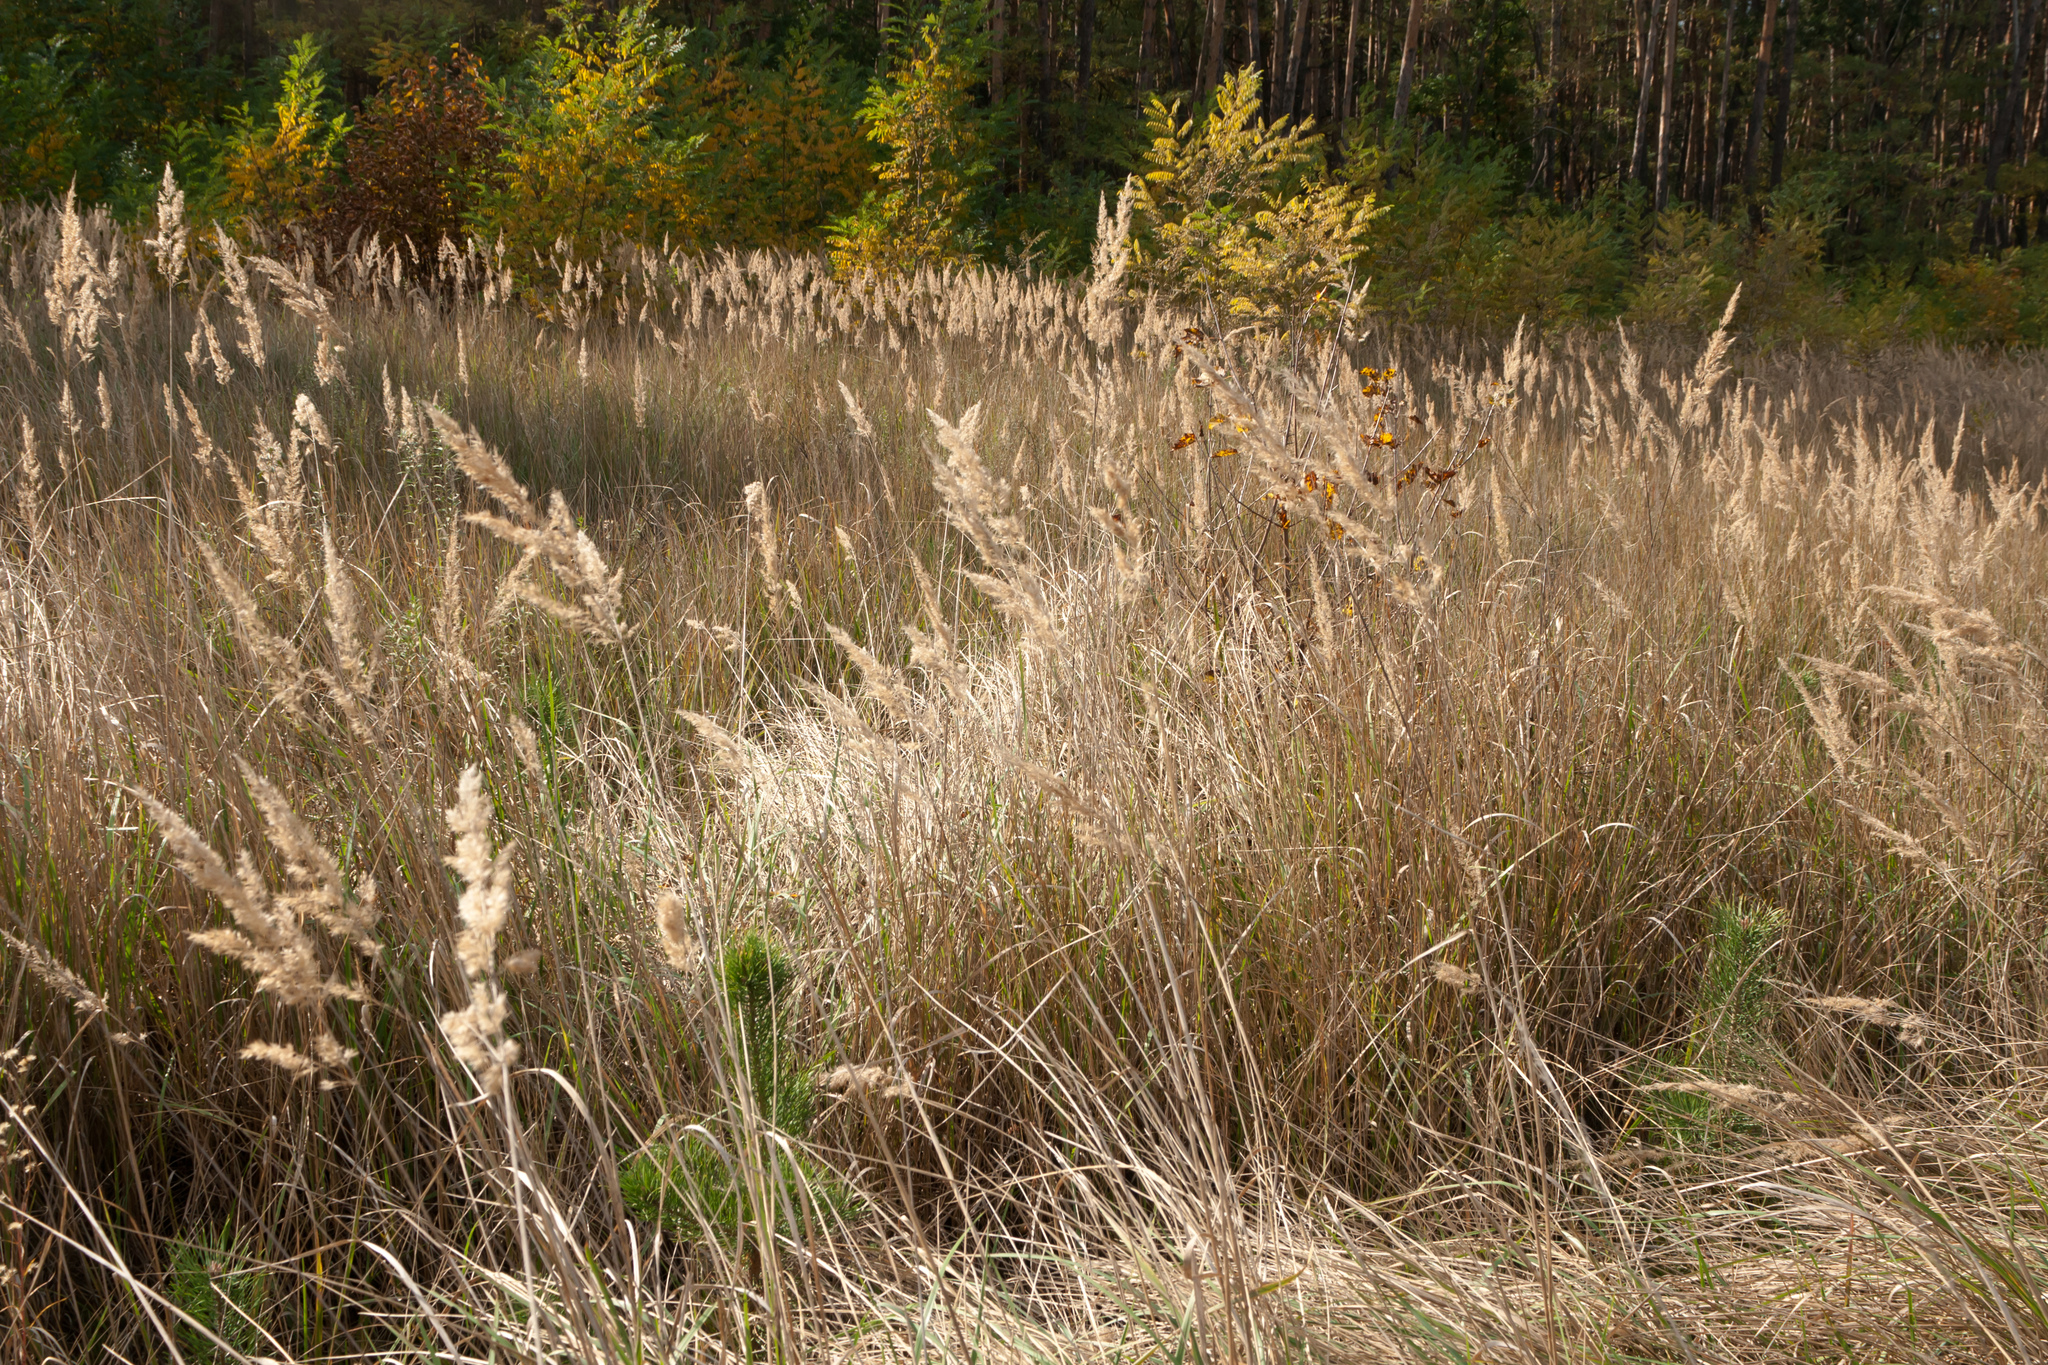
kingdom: Plantae
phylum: Tracheophyta
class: Liliopsida
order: Poales
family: Poaceae
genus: Calamagrostis
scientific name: Calamagrostis epigejos
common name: Wood small-reed
